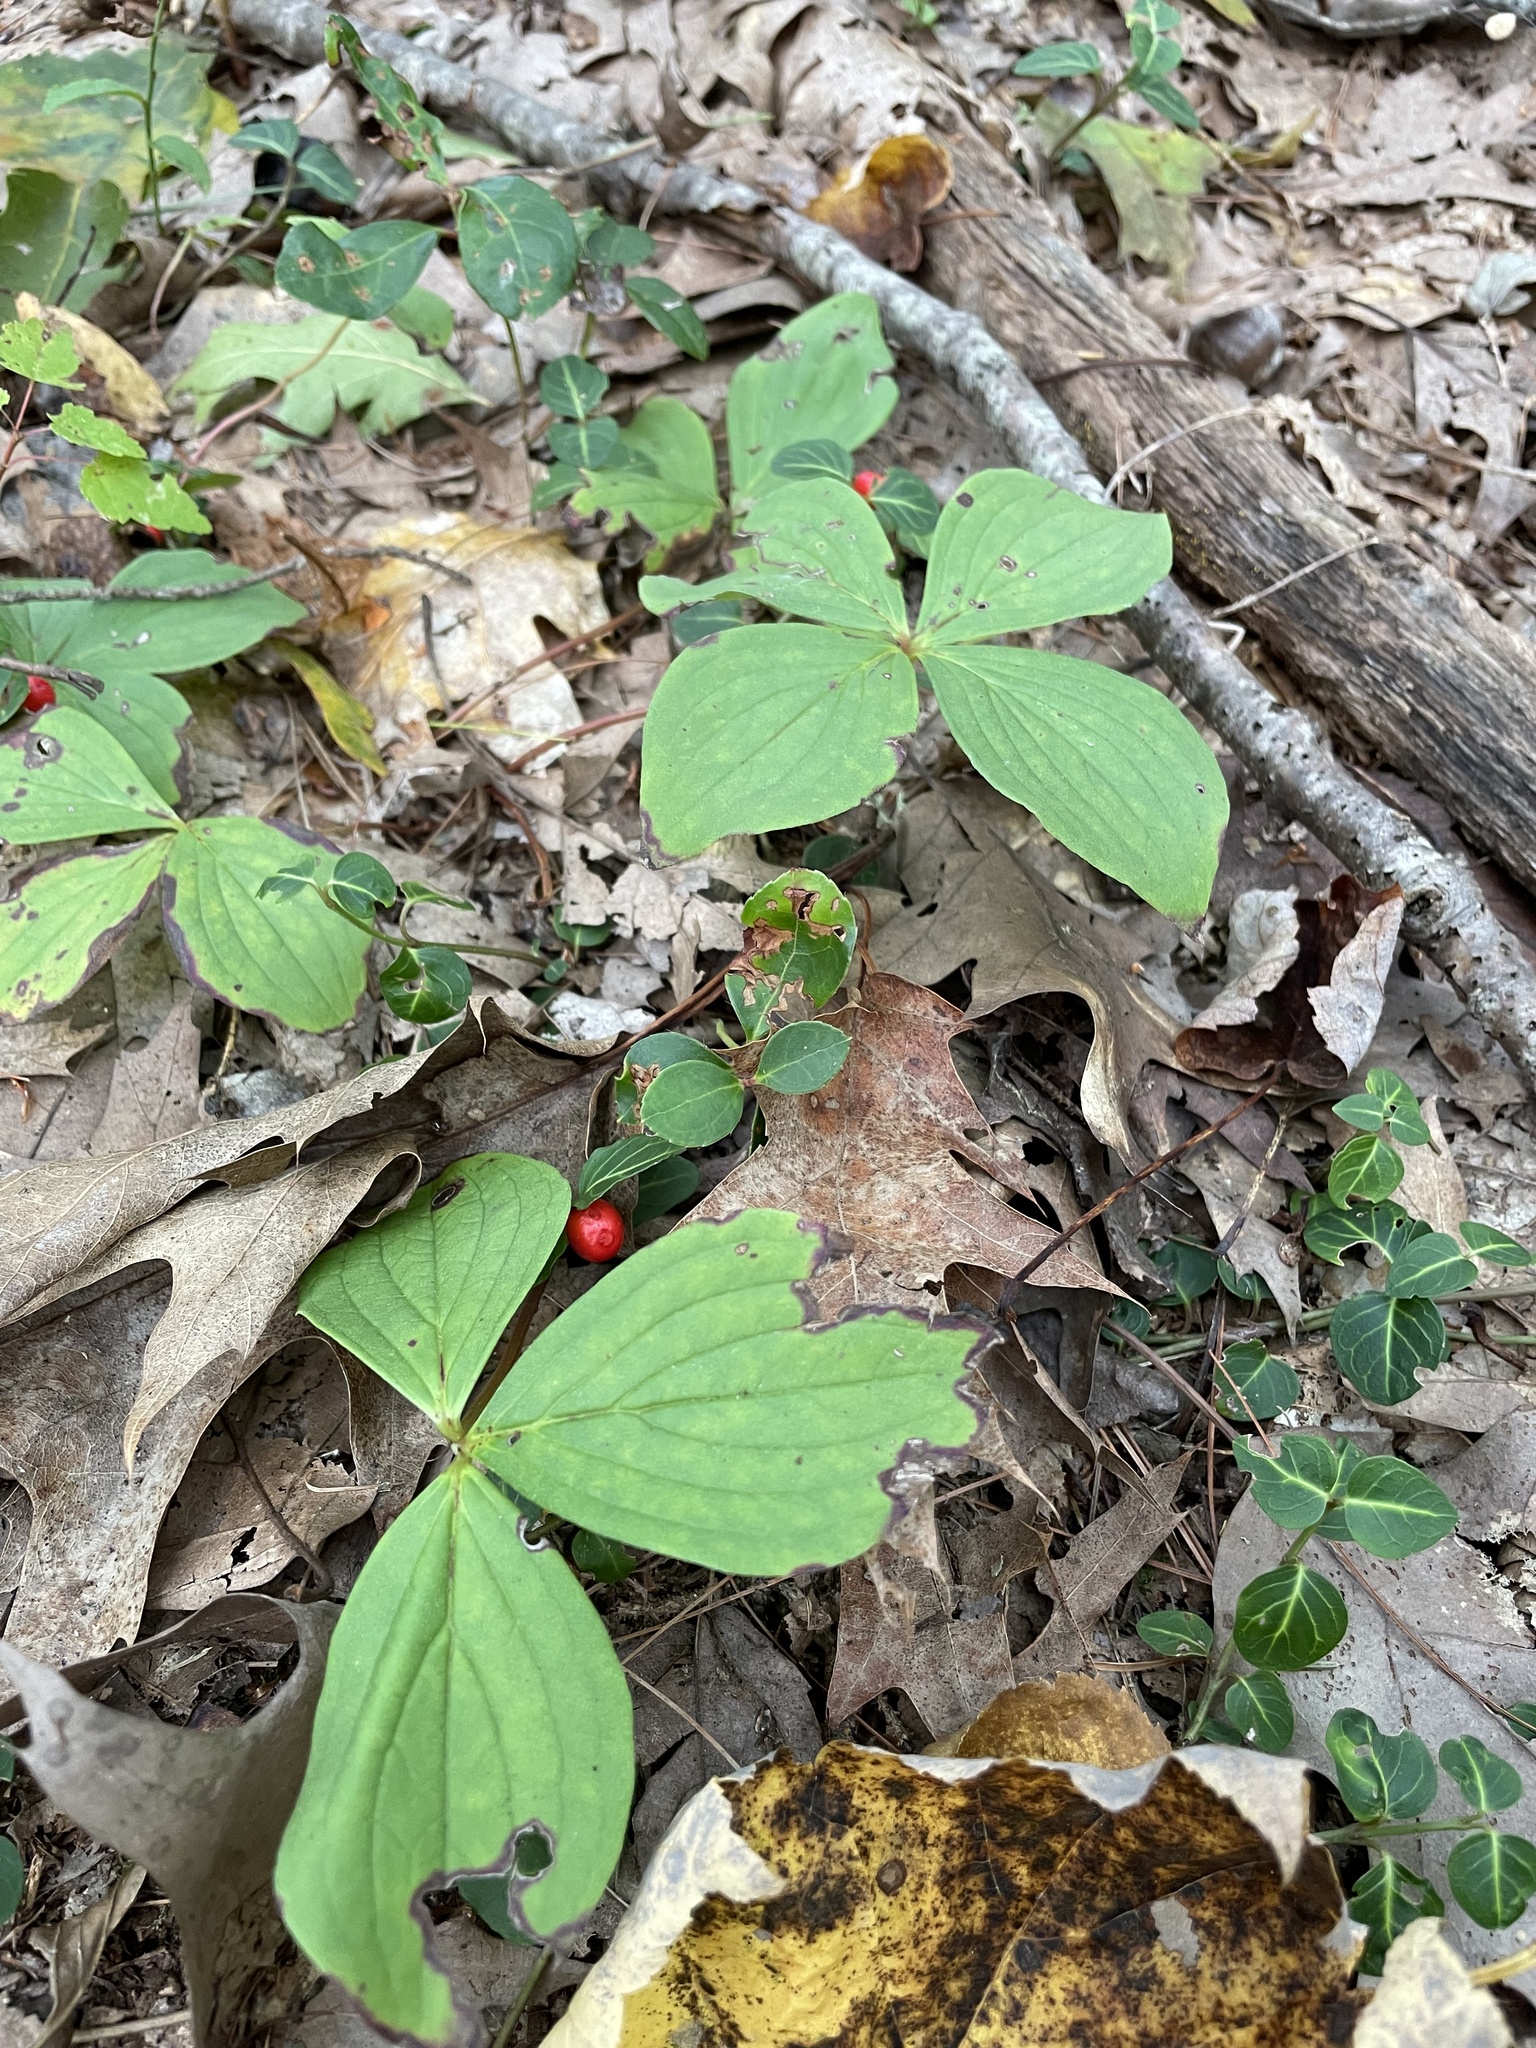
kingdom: Plantae
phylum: Tracheophyta
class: Magnoliopsida
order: Cornales
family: Cornaceae
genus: Cornus
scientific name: Cornus canadensis
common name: Creeping dogwood
